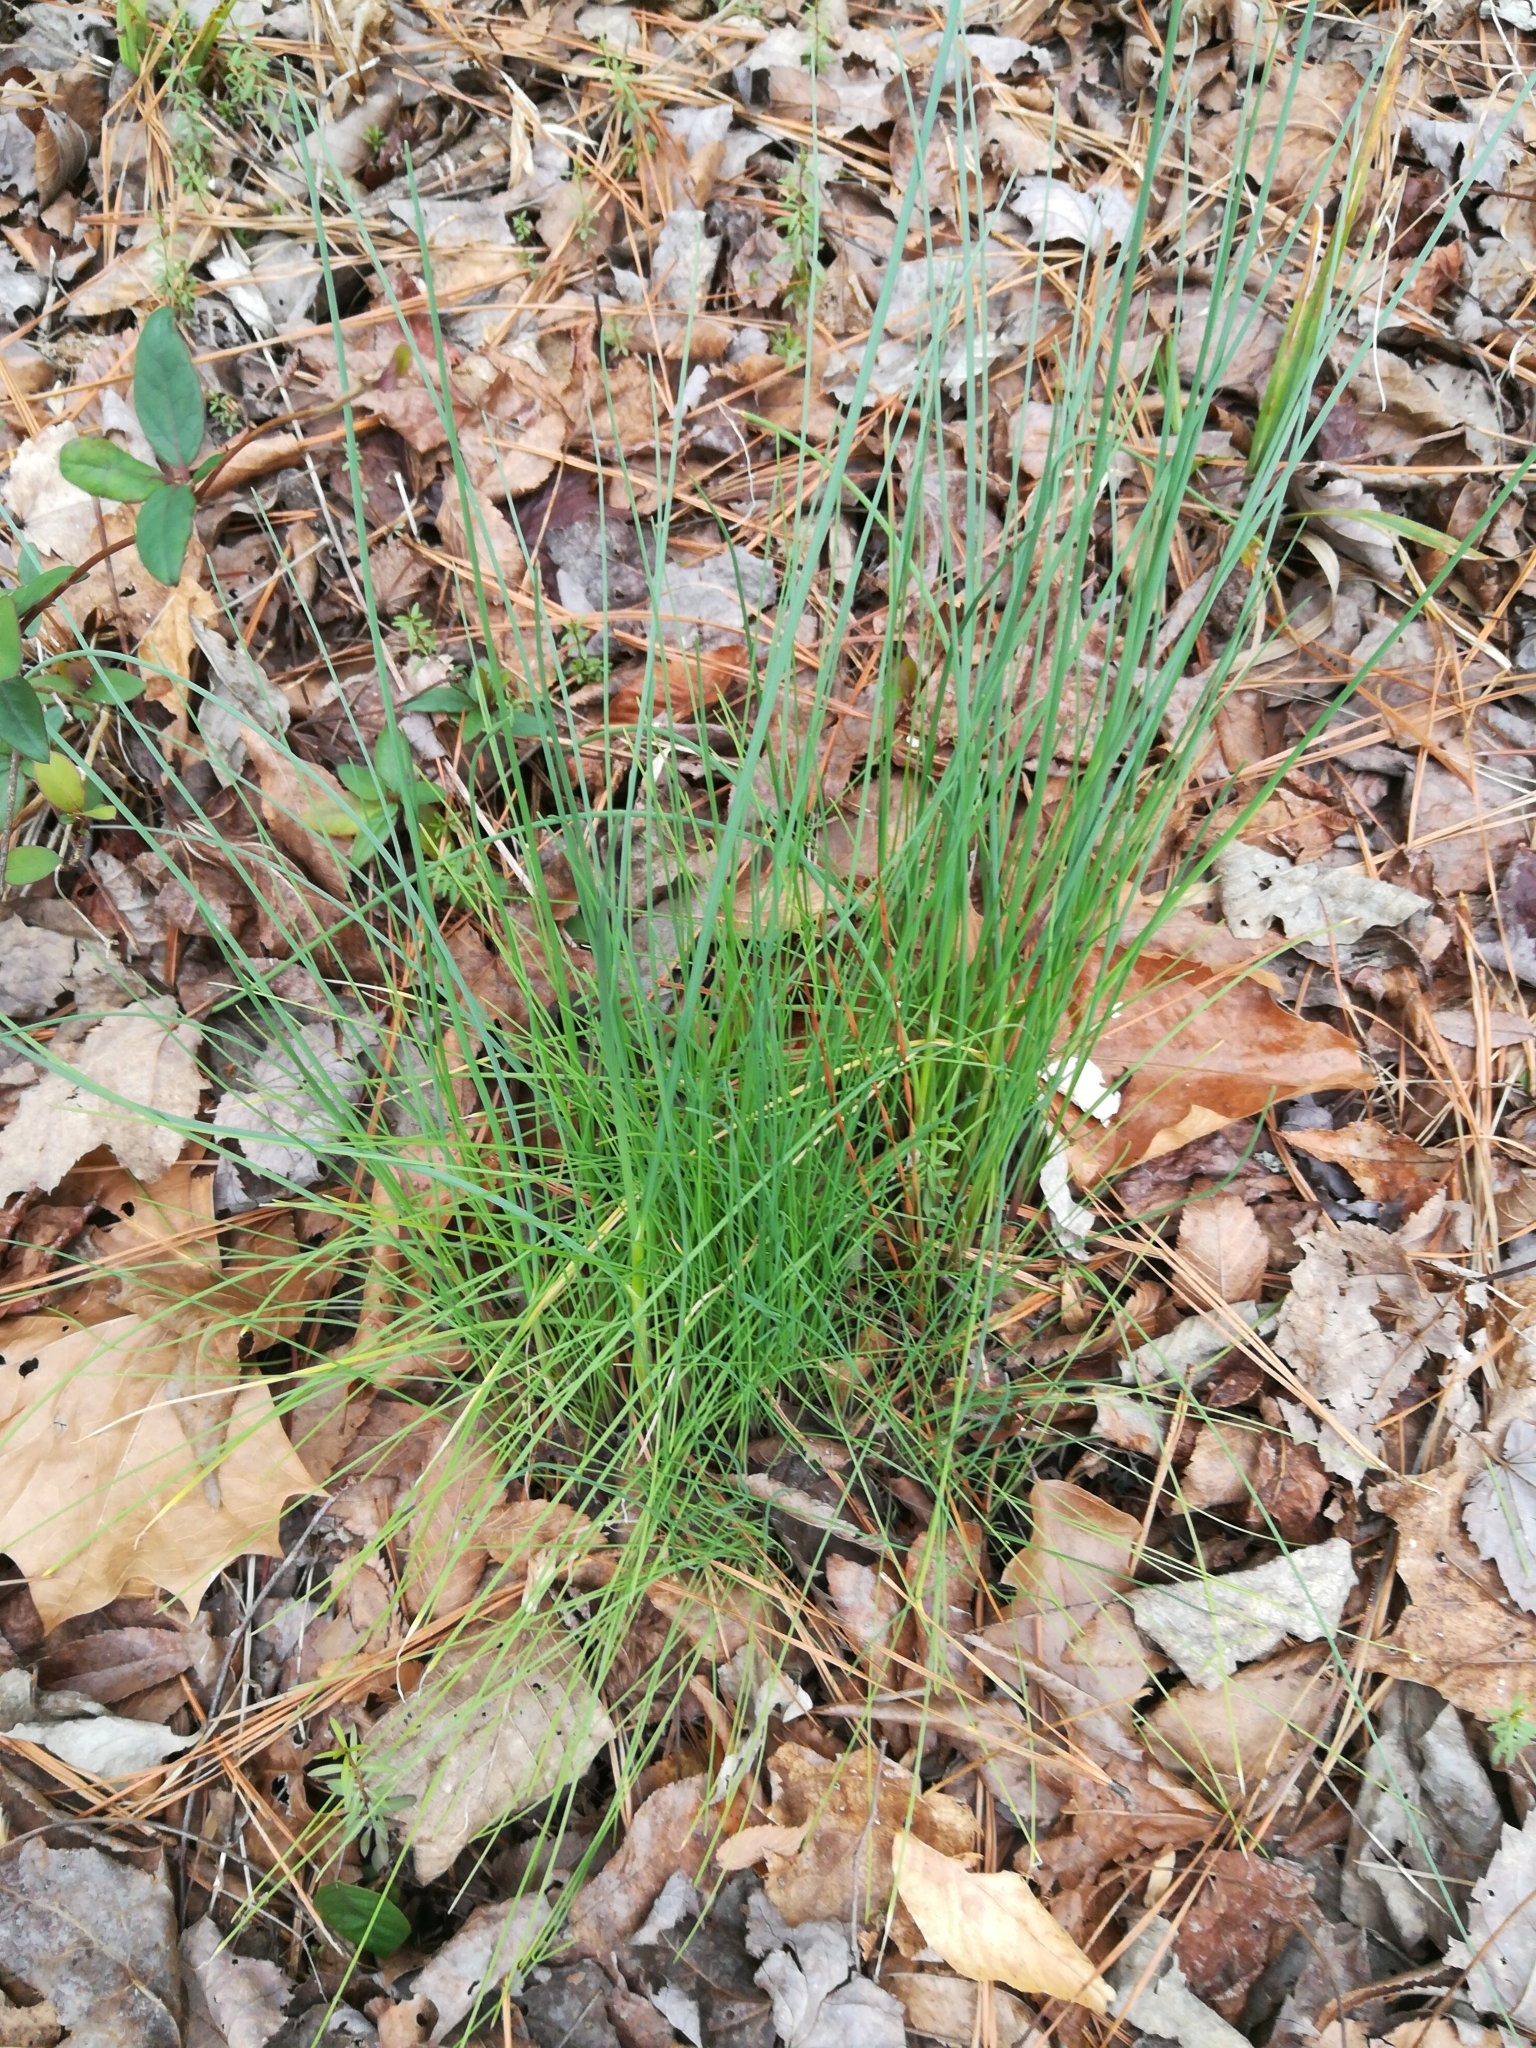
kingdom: Plantae
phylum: Tracheophyta
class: Liliopsida
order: Asparagales
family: Amaryllidaceae
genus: Allium
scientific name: Allium vineale
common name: Crow garlic
